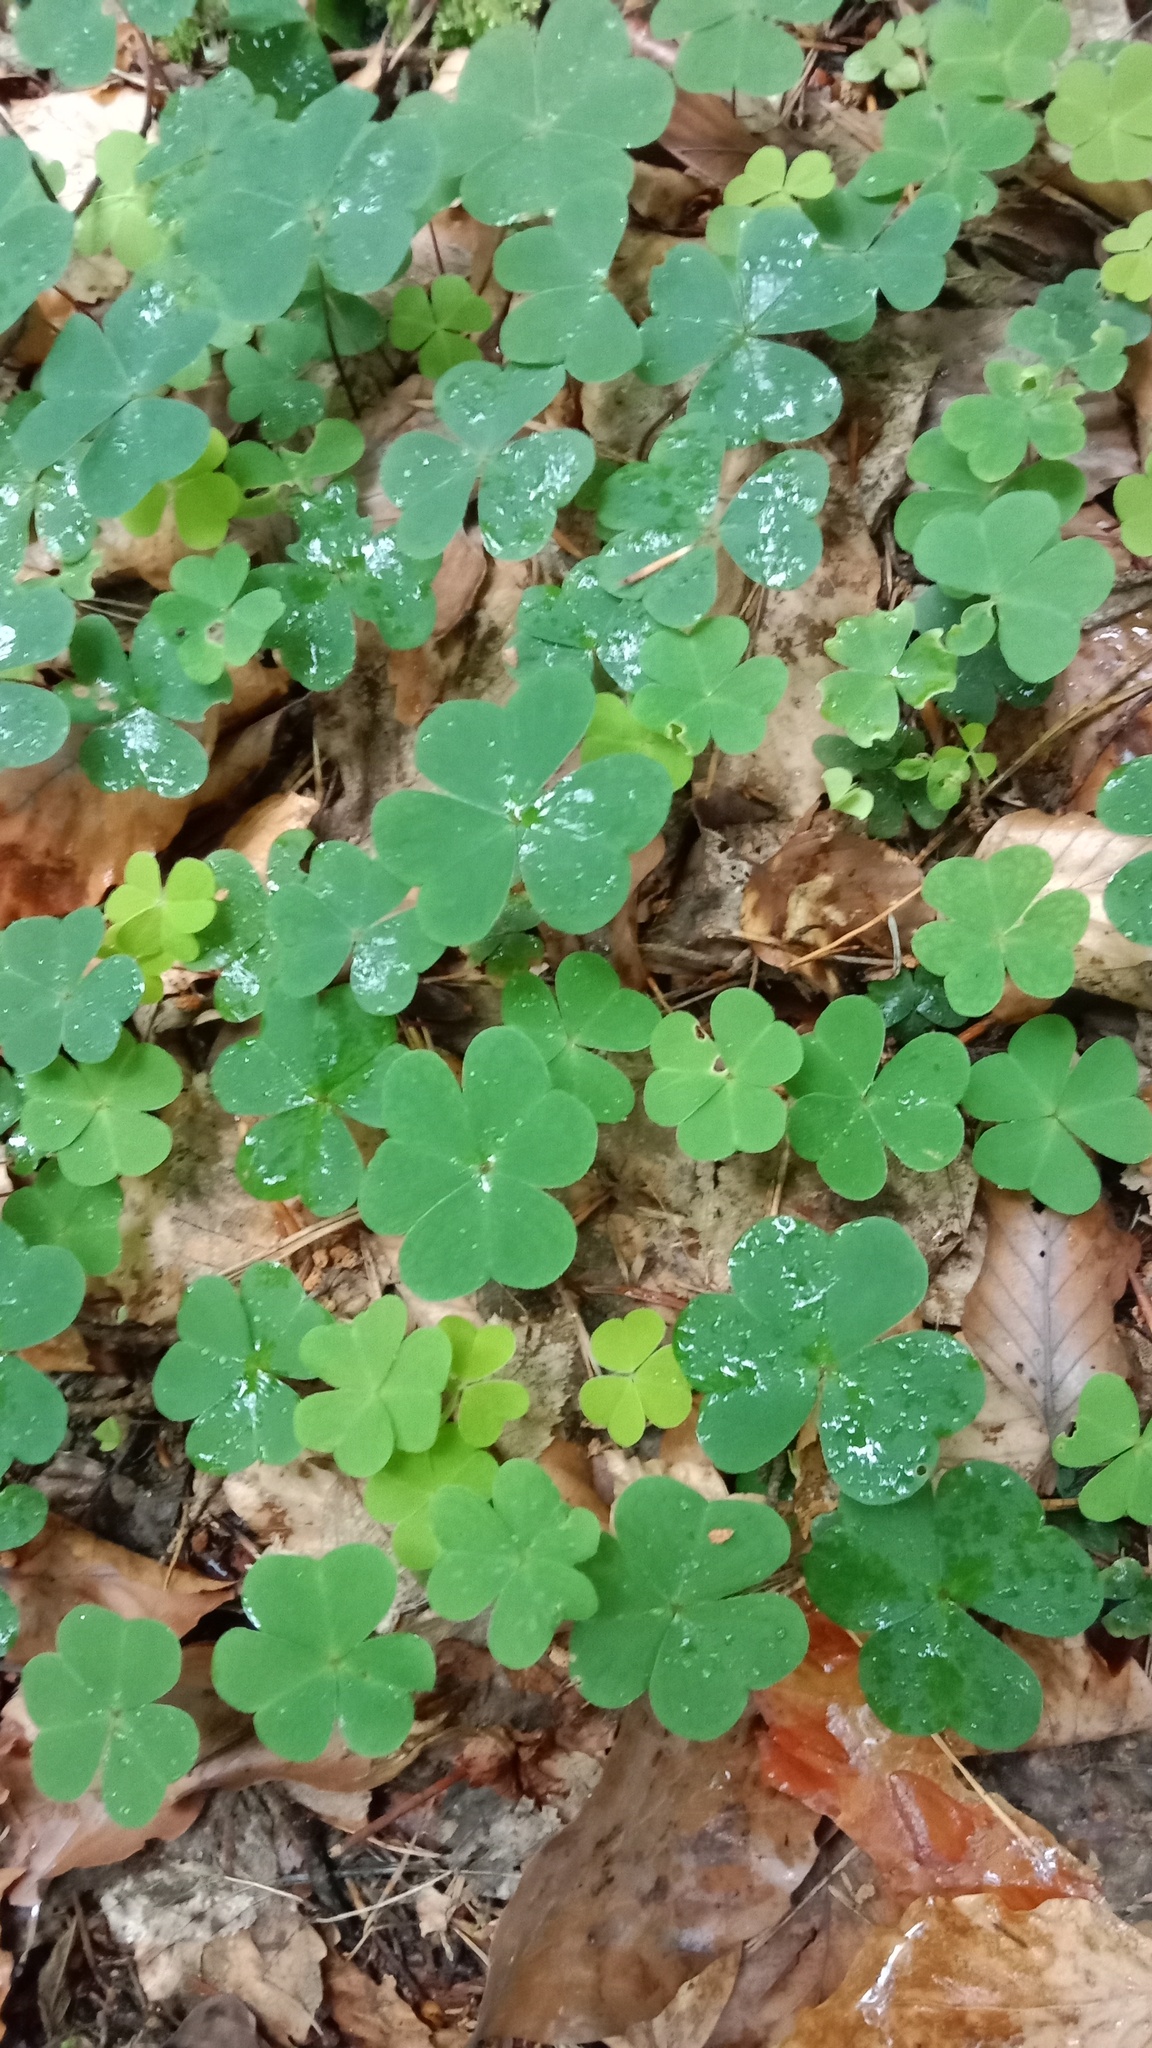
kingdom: Plantae
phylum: Tracheophyta
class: Magnoliopsida
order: Oxalidales
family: Oxalidaceae
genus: Oxalis
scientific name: Oxalis acetosella
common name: Wood-sorrel
